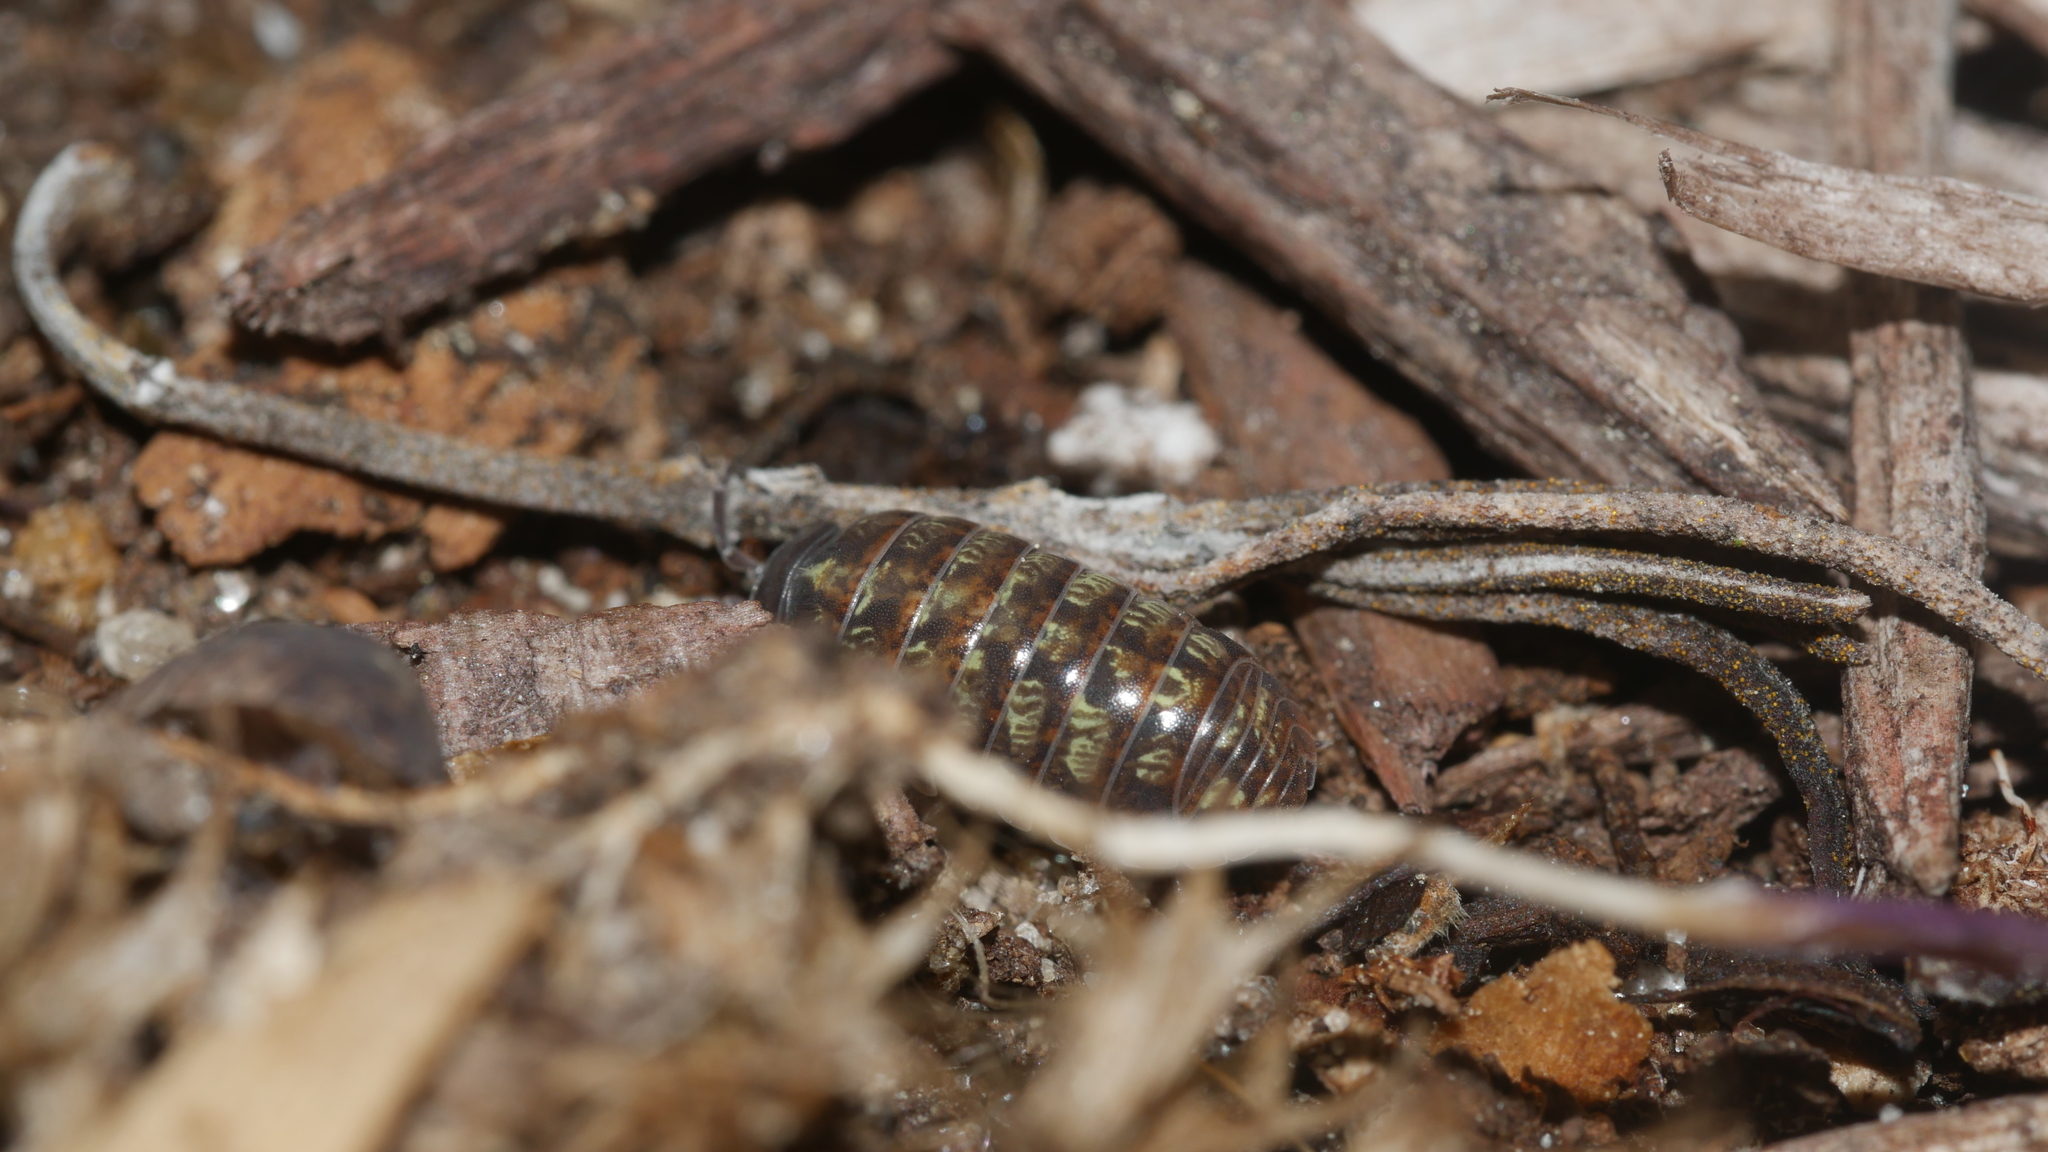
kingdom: Animalia
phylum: Arthropoda
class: Malacostraca
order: Isopoda
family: Armadillidiidae
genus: Armadillidium
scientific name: Armadillidium vulgare
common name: Common pill woodlouse
